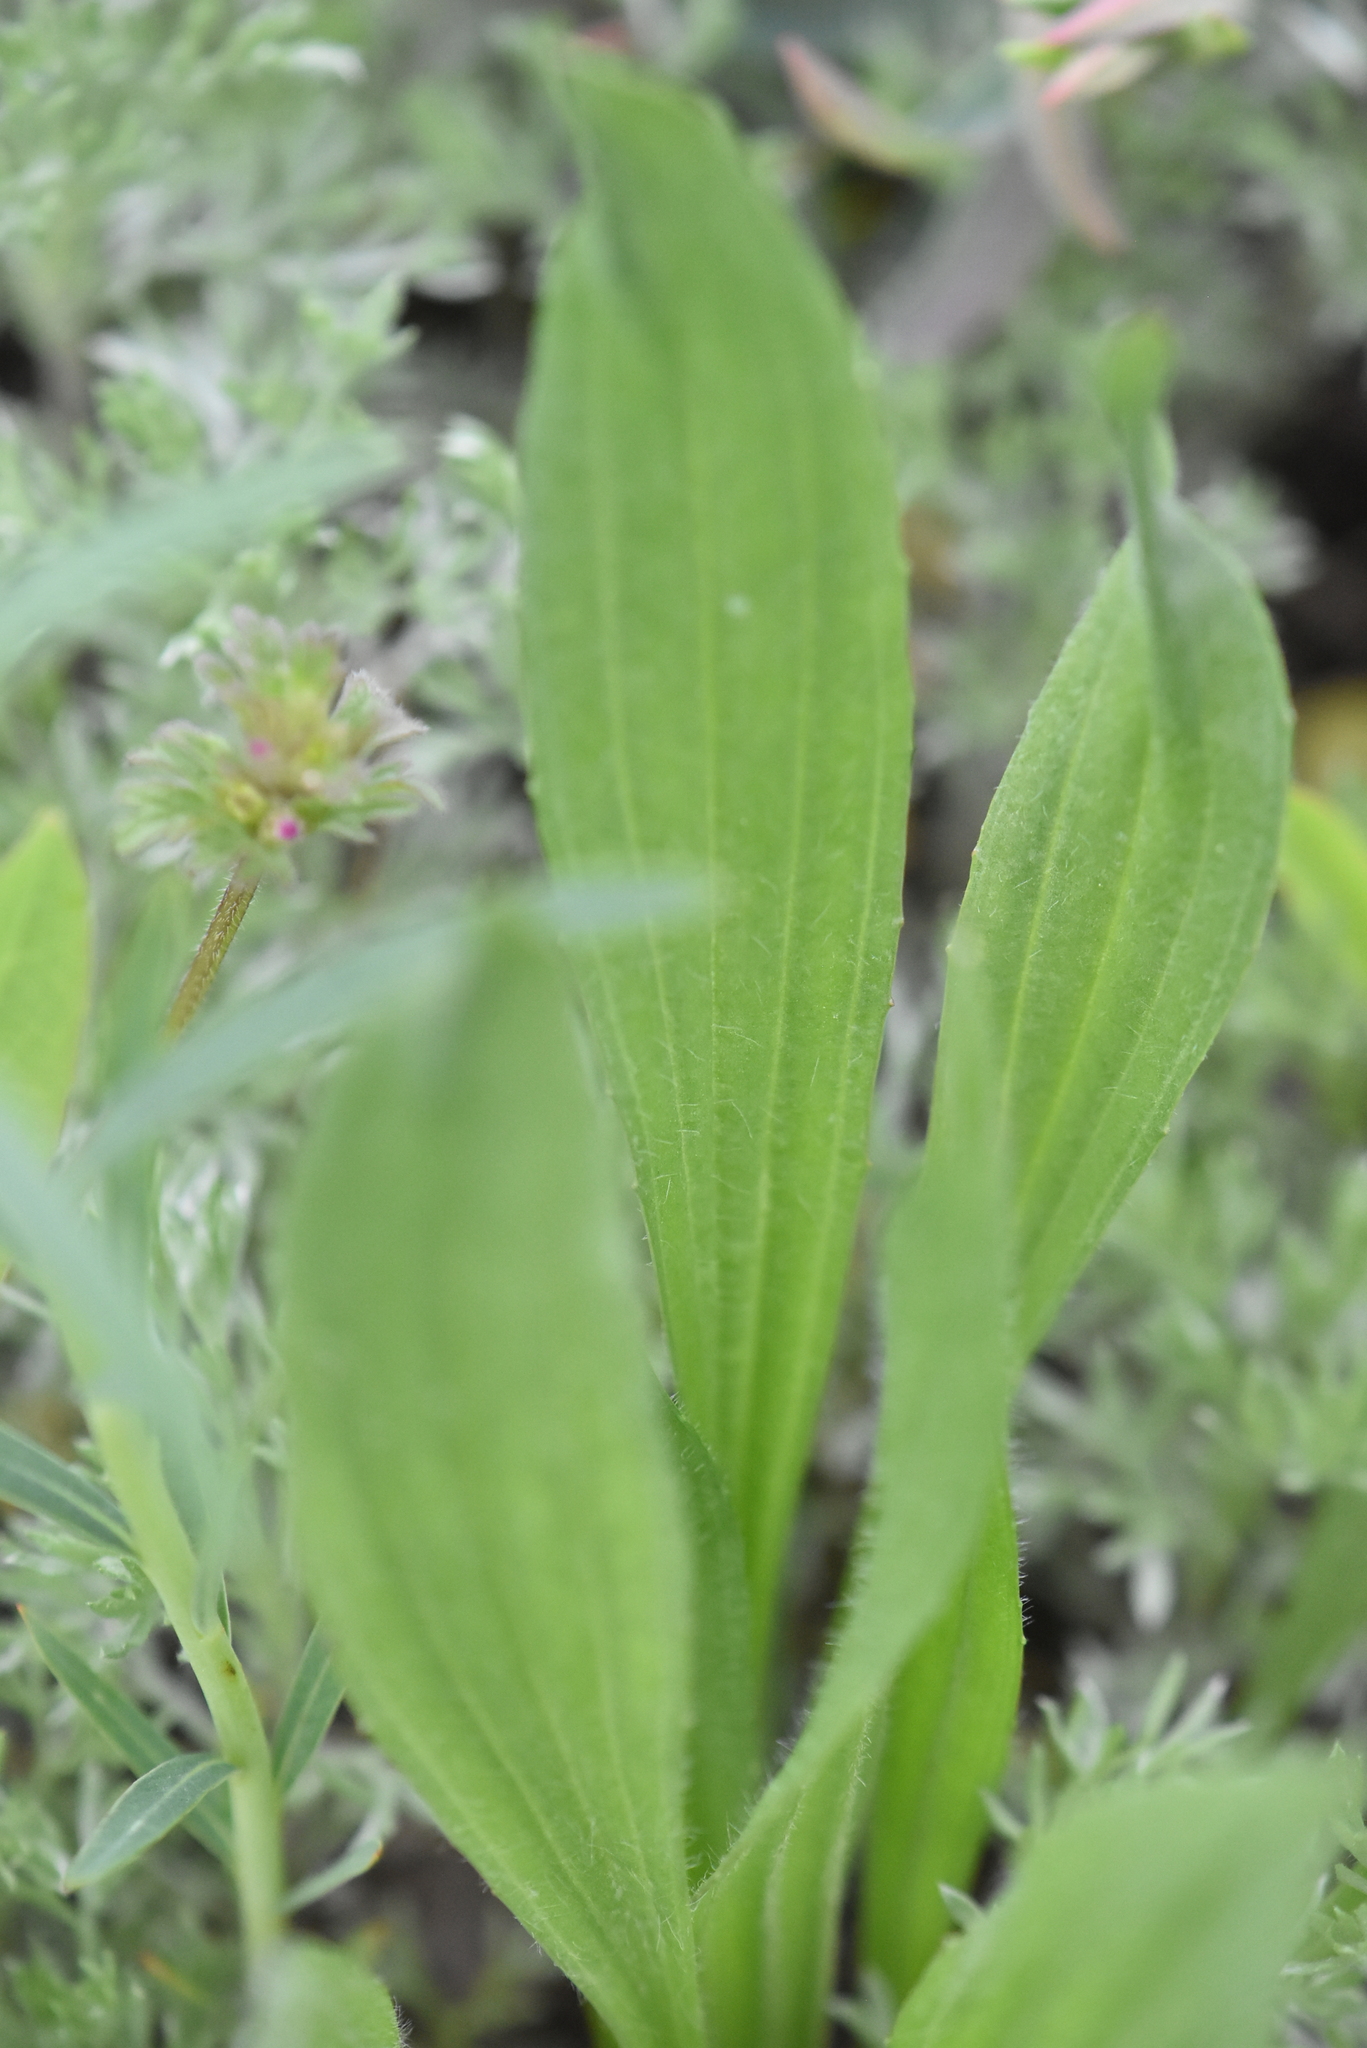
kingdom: Plantae
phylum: Tracheophyta
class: Magnoliopsida
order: Lamiales
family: Plantaginaceae
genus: Plantago
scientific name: Plantago urvillei
